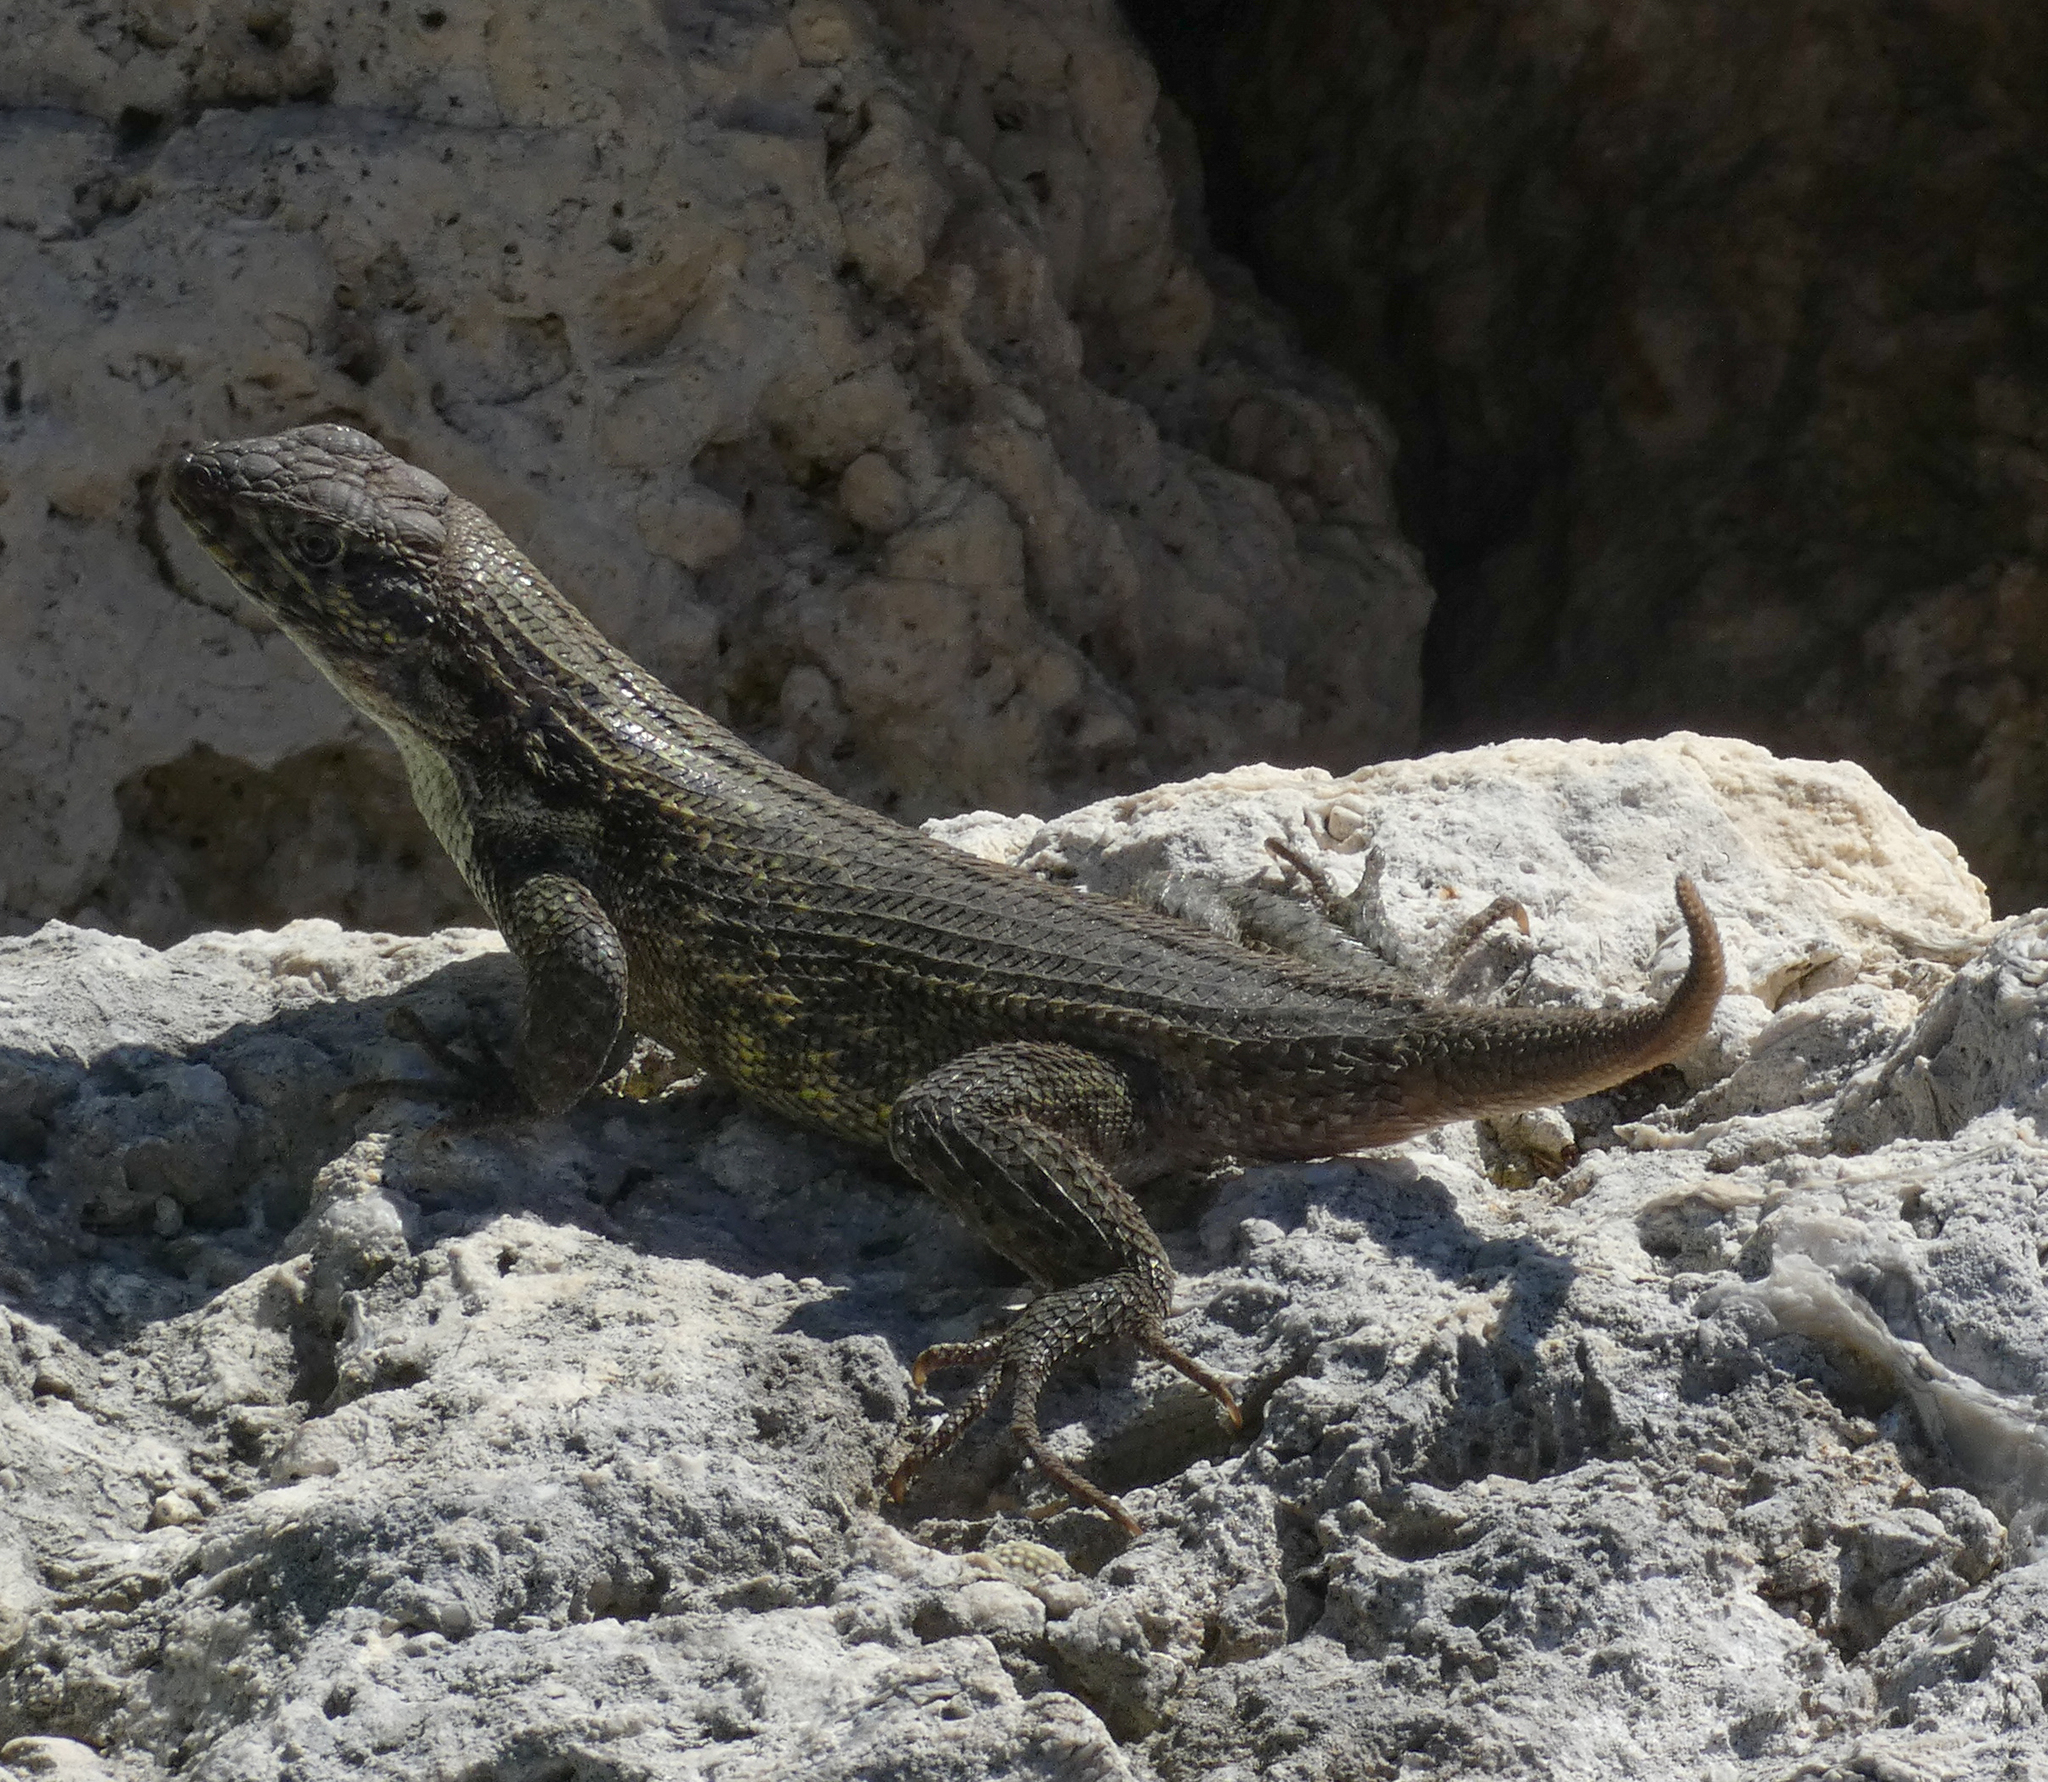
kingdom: Animalia
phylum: Chordata
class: Squamata
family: Leiocephalidae
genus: Leiocephalus
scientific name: Leiocephalus carinatus
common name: Northern curly-tailed lizard
